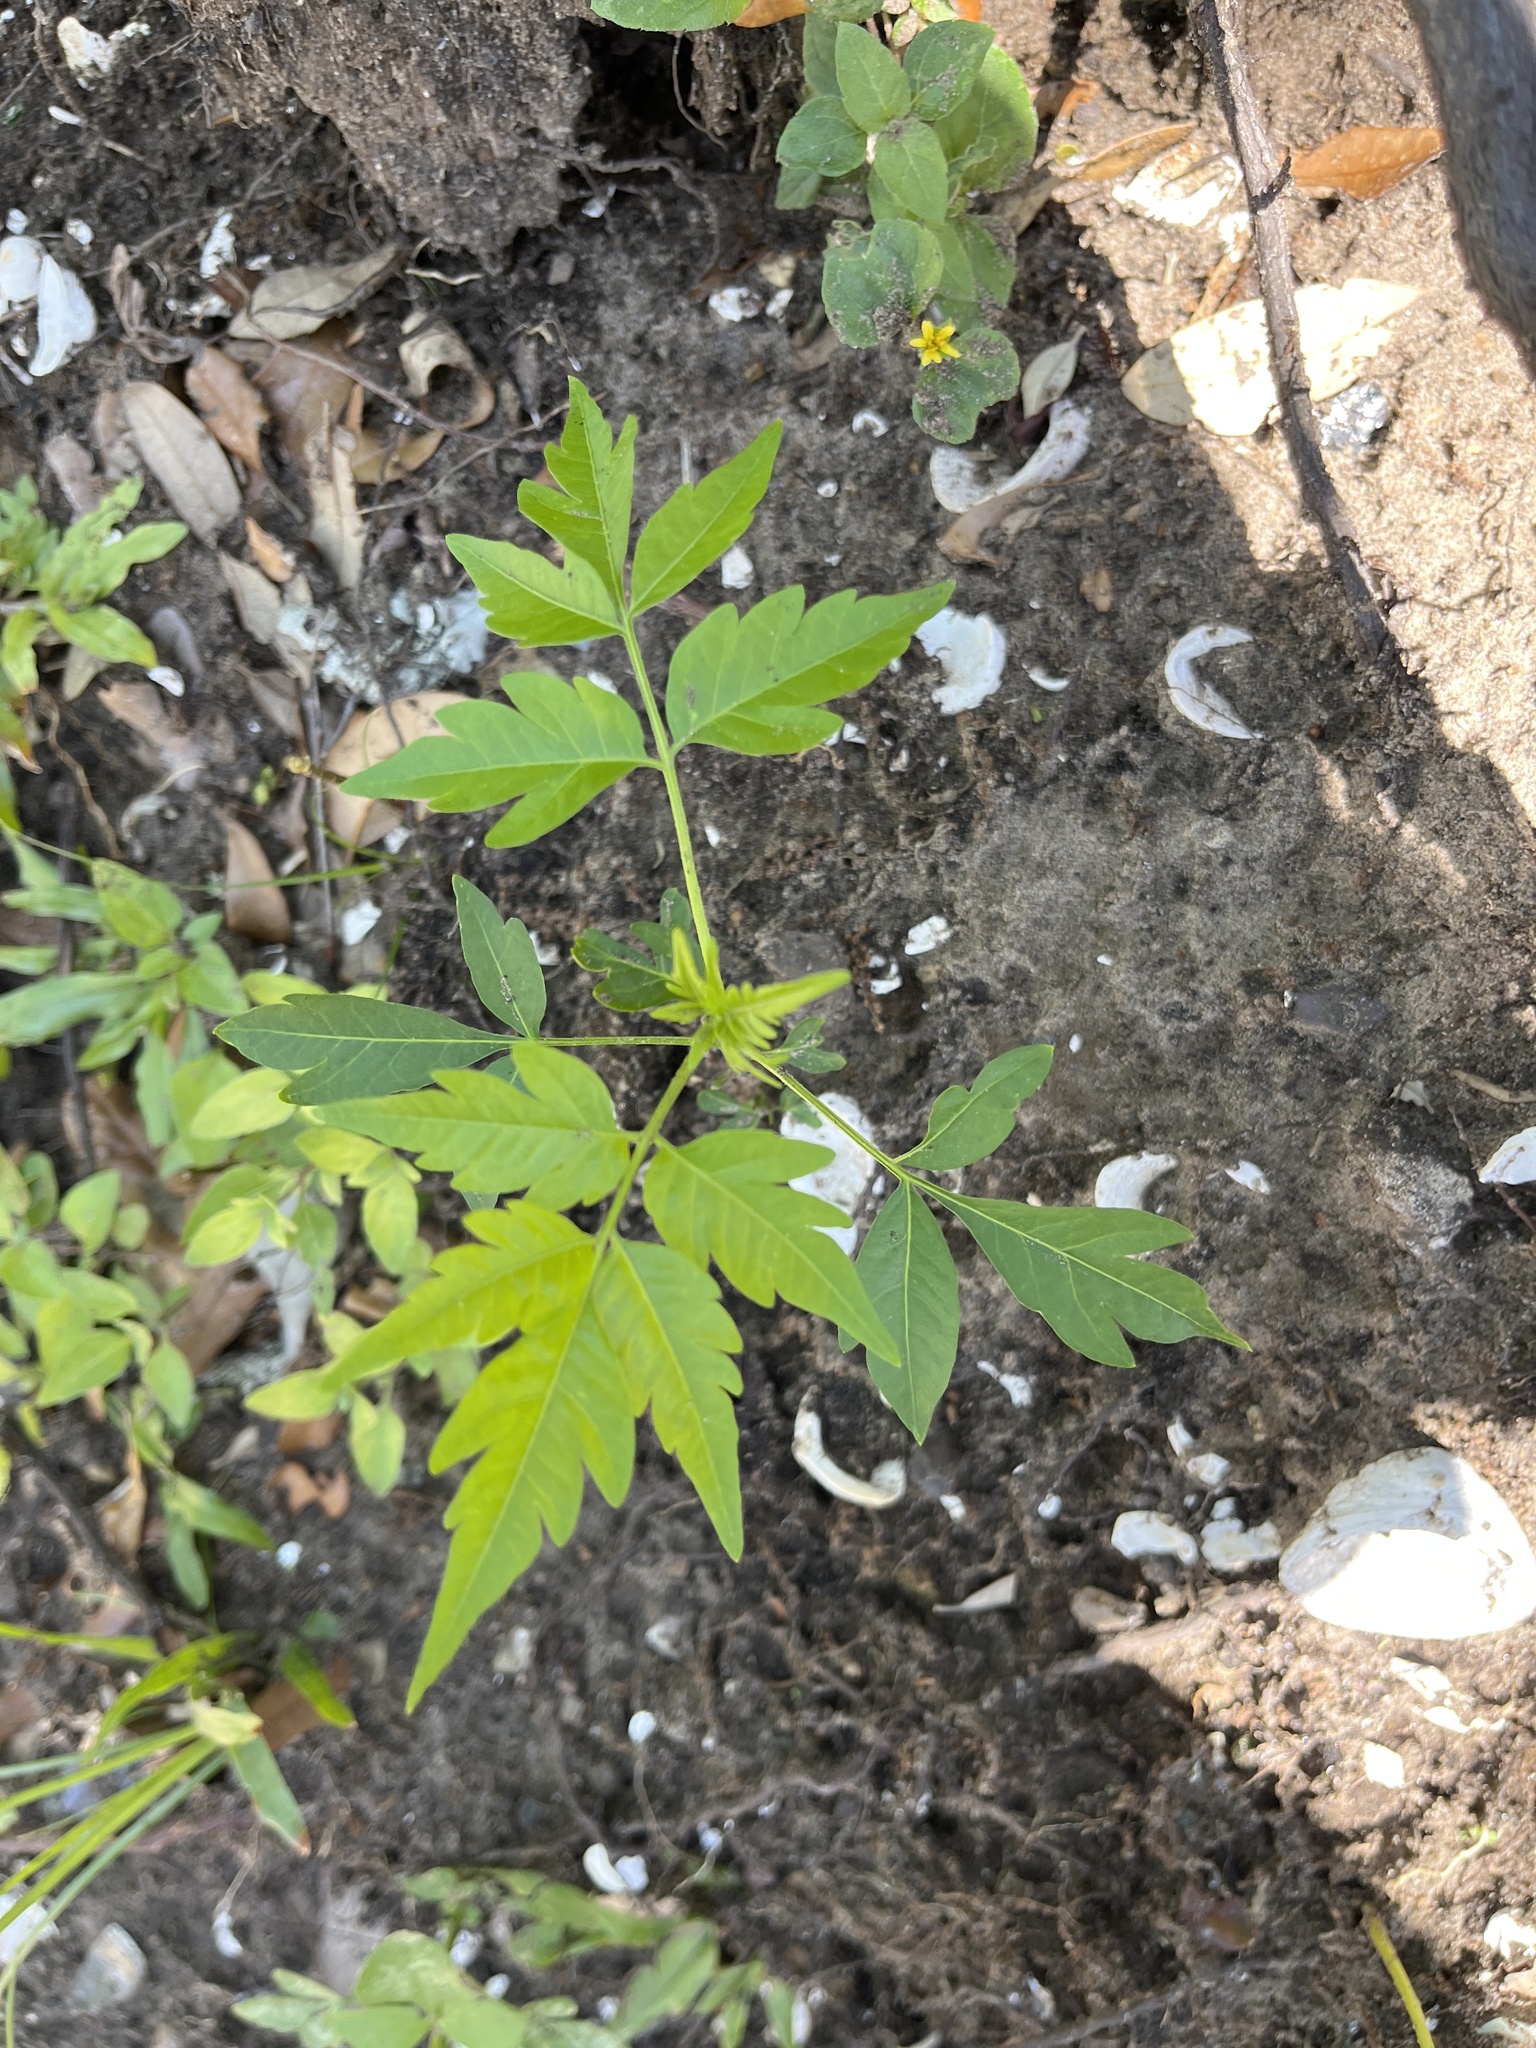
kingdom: Plantae
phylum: Tracheophyta
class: Magnoliopsida
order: Sapindales
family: Meliaceae
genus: Melia
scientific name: Melia azedarach
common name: Chinaberrytree
